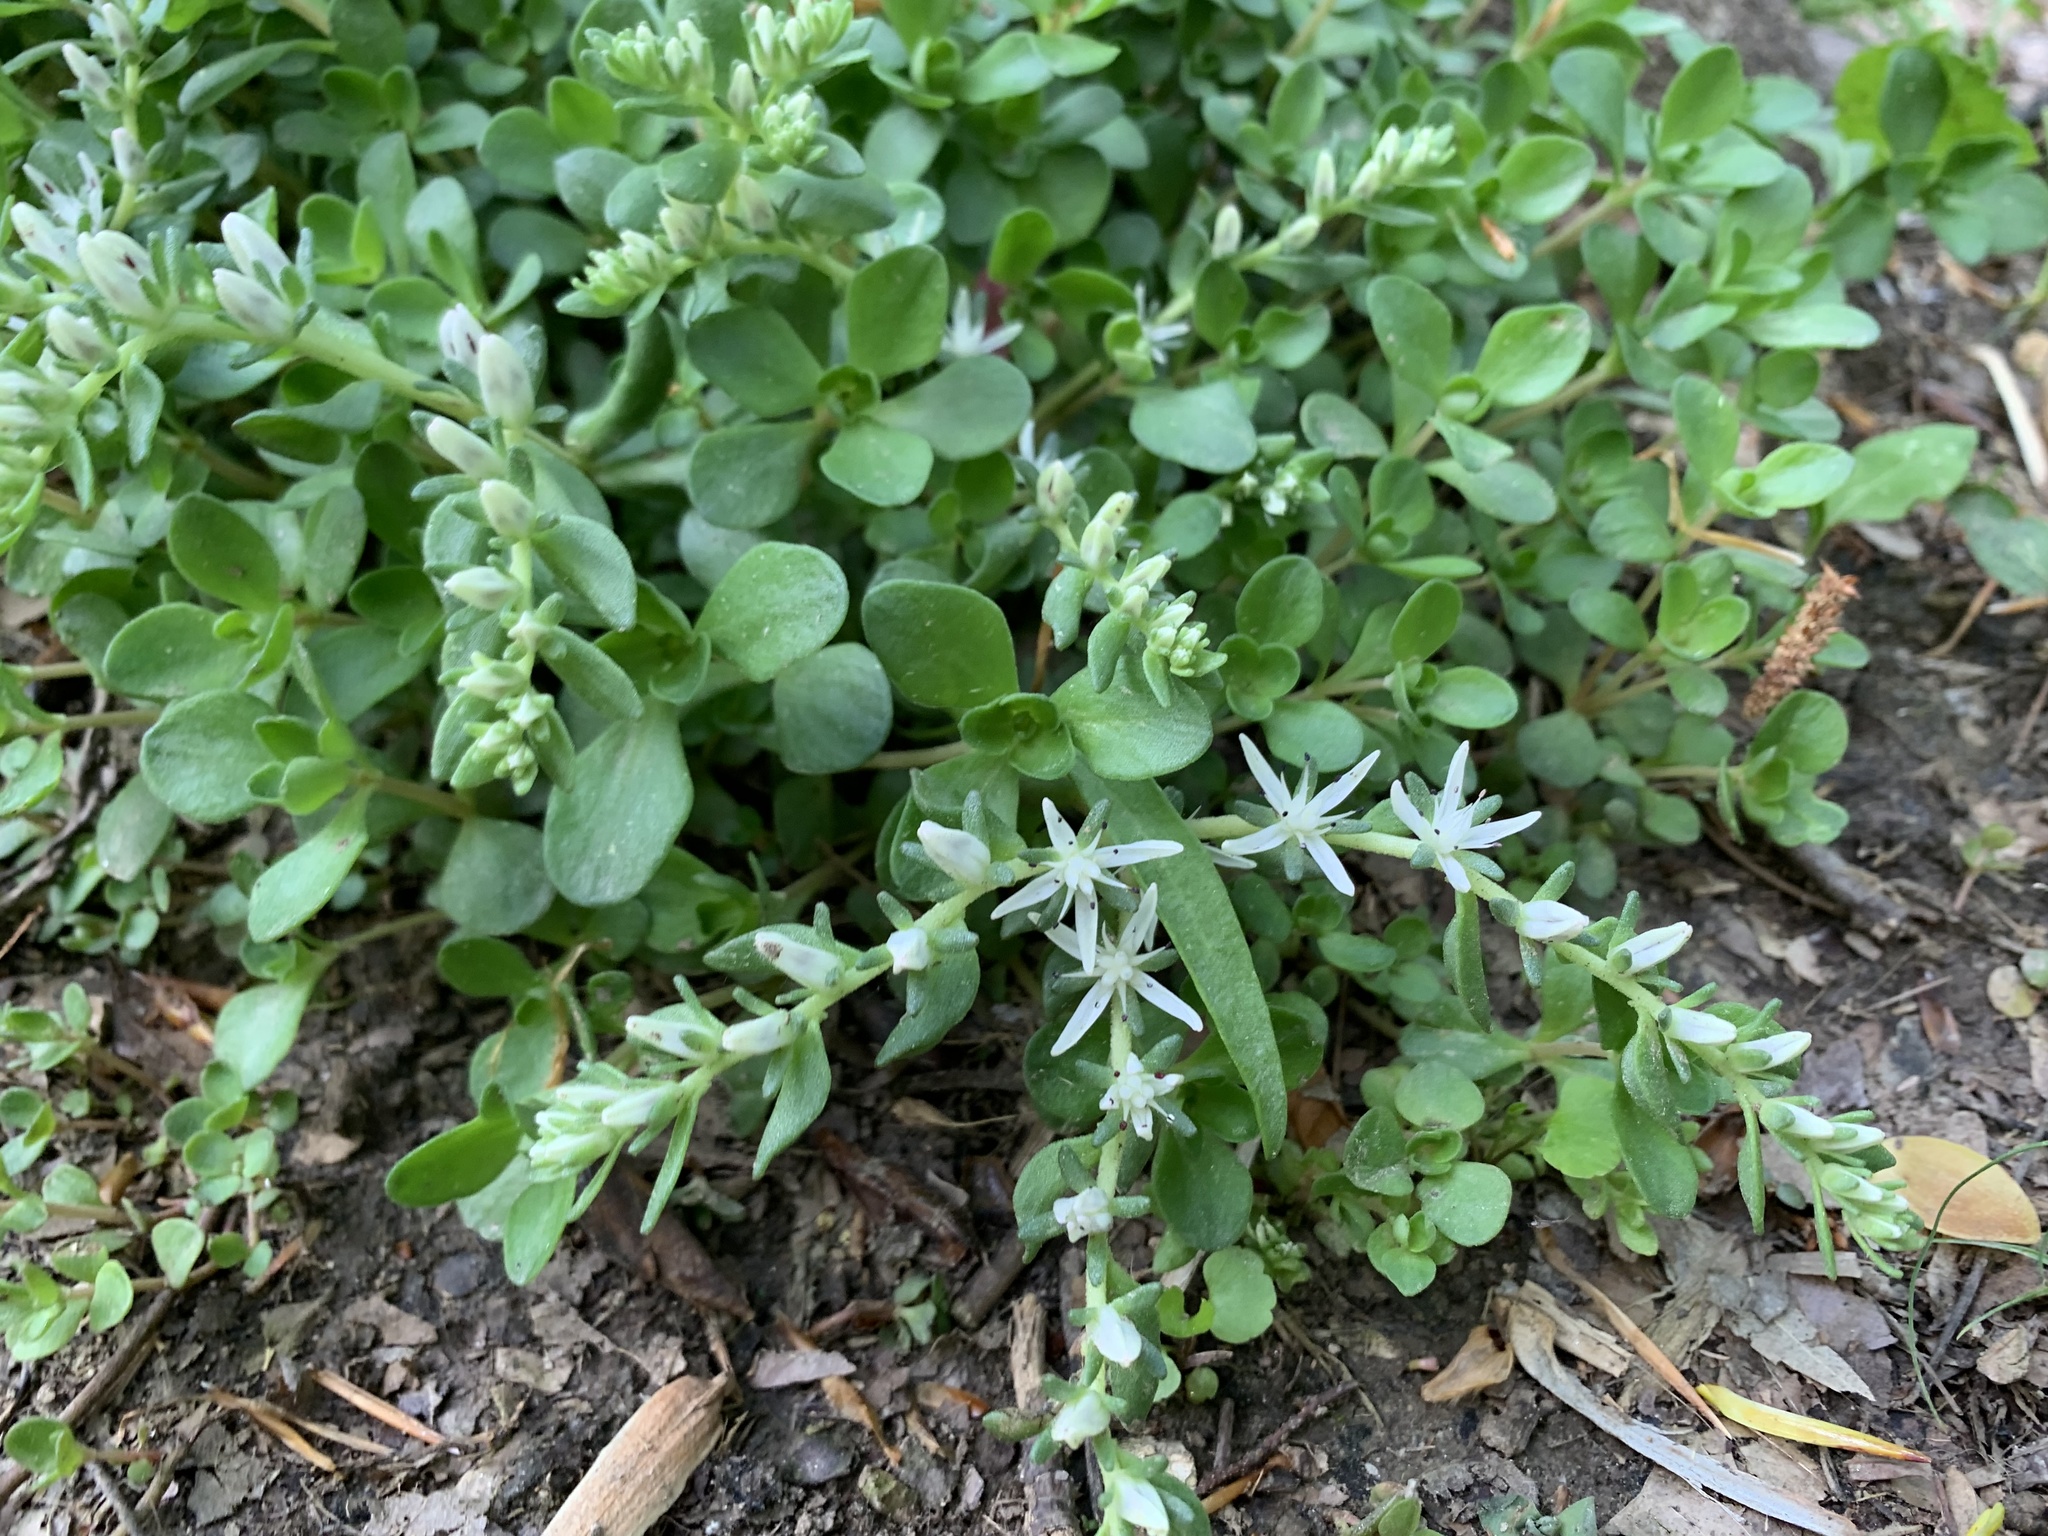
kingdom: Plantae
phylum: Tracheophyta
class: Magnoliopsida
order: Saxifragales
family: Crassulaceae
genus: Sedum
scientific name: Sedum ternatum
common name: Wild stonecrop
